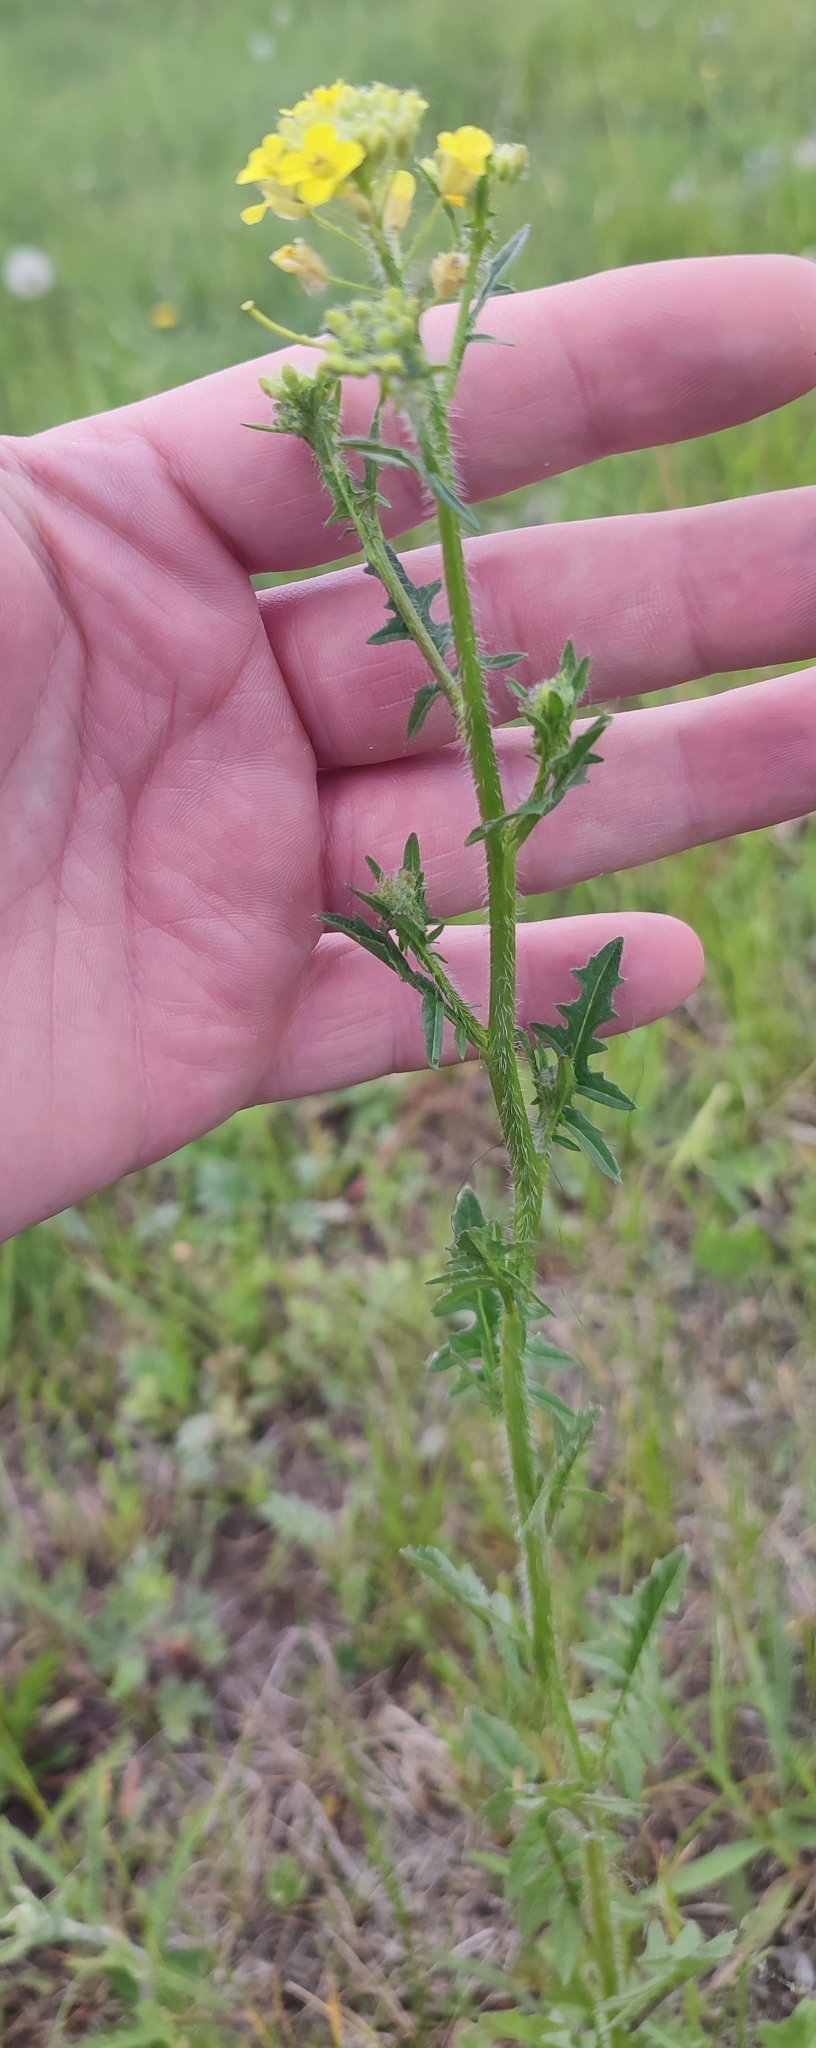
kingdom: Plantae
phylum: Tracheophyta
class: Magnoliopsida
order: Brassicales
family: Brassicaceae
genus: Sisymbrium
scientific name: Sisymbrium loeselii
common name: False london-rocket
